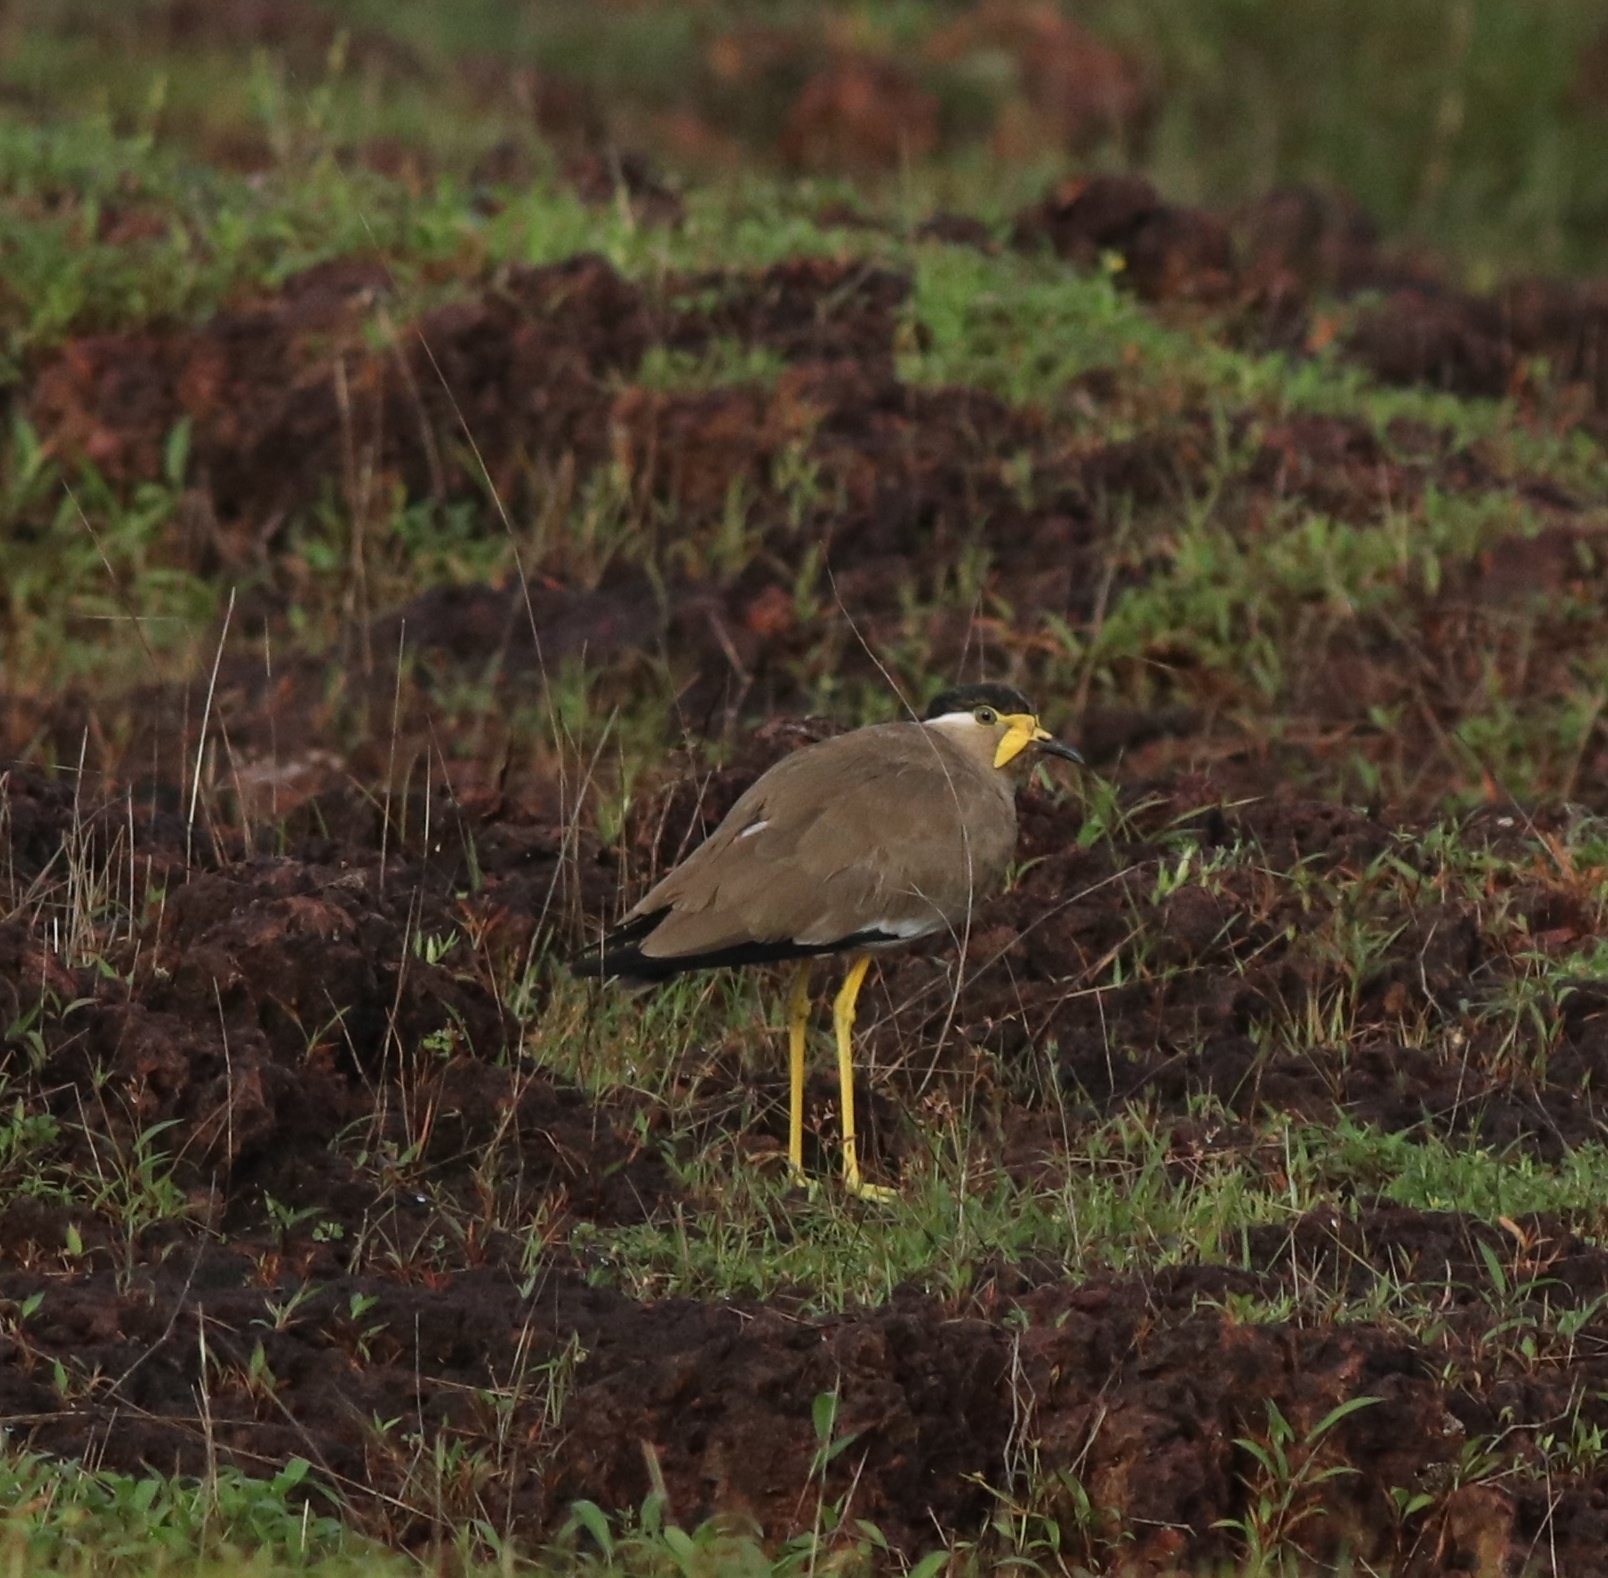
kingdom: Animalia
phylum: Chordata
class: Aves
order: Charadriiformes
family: Charadriidae
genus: Vanellus
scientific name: Vanellus malabaricus
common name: Yellow-wattled lapwing
